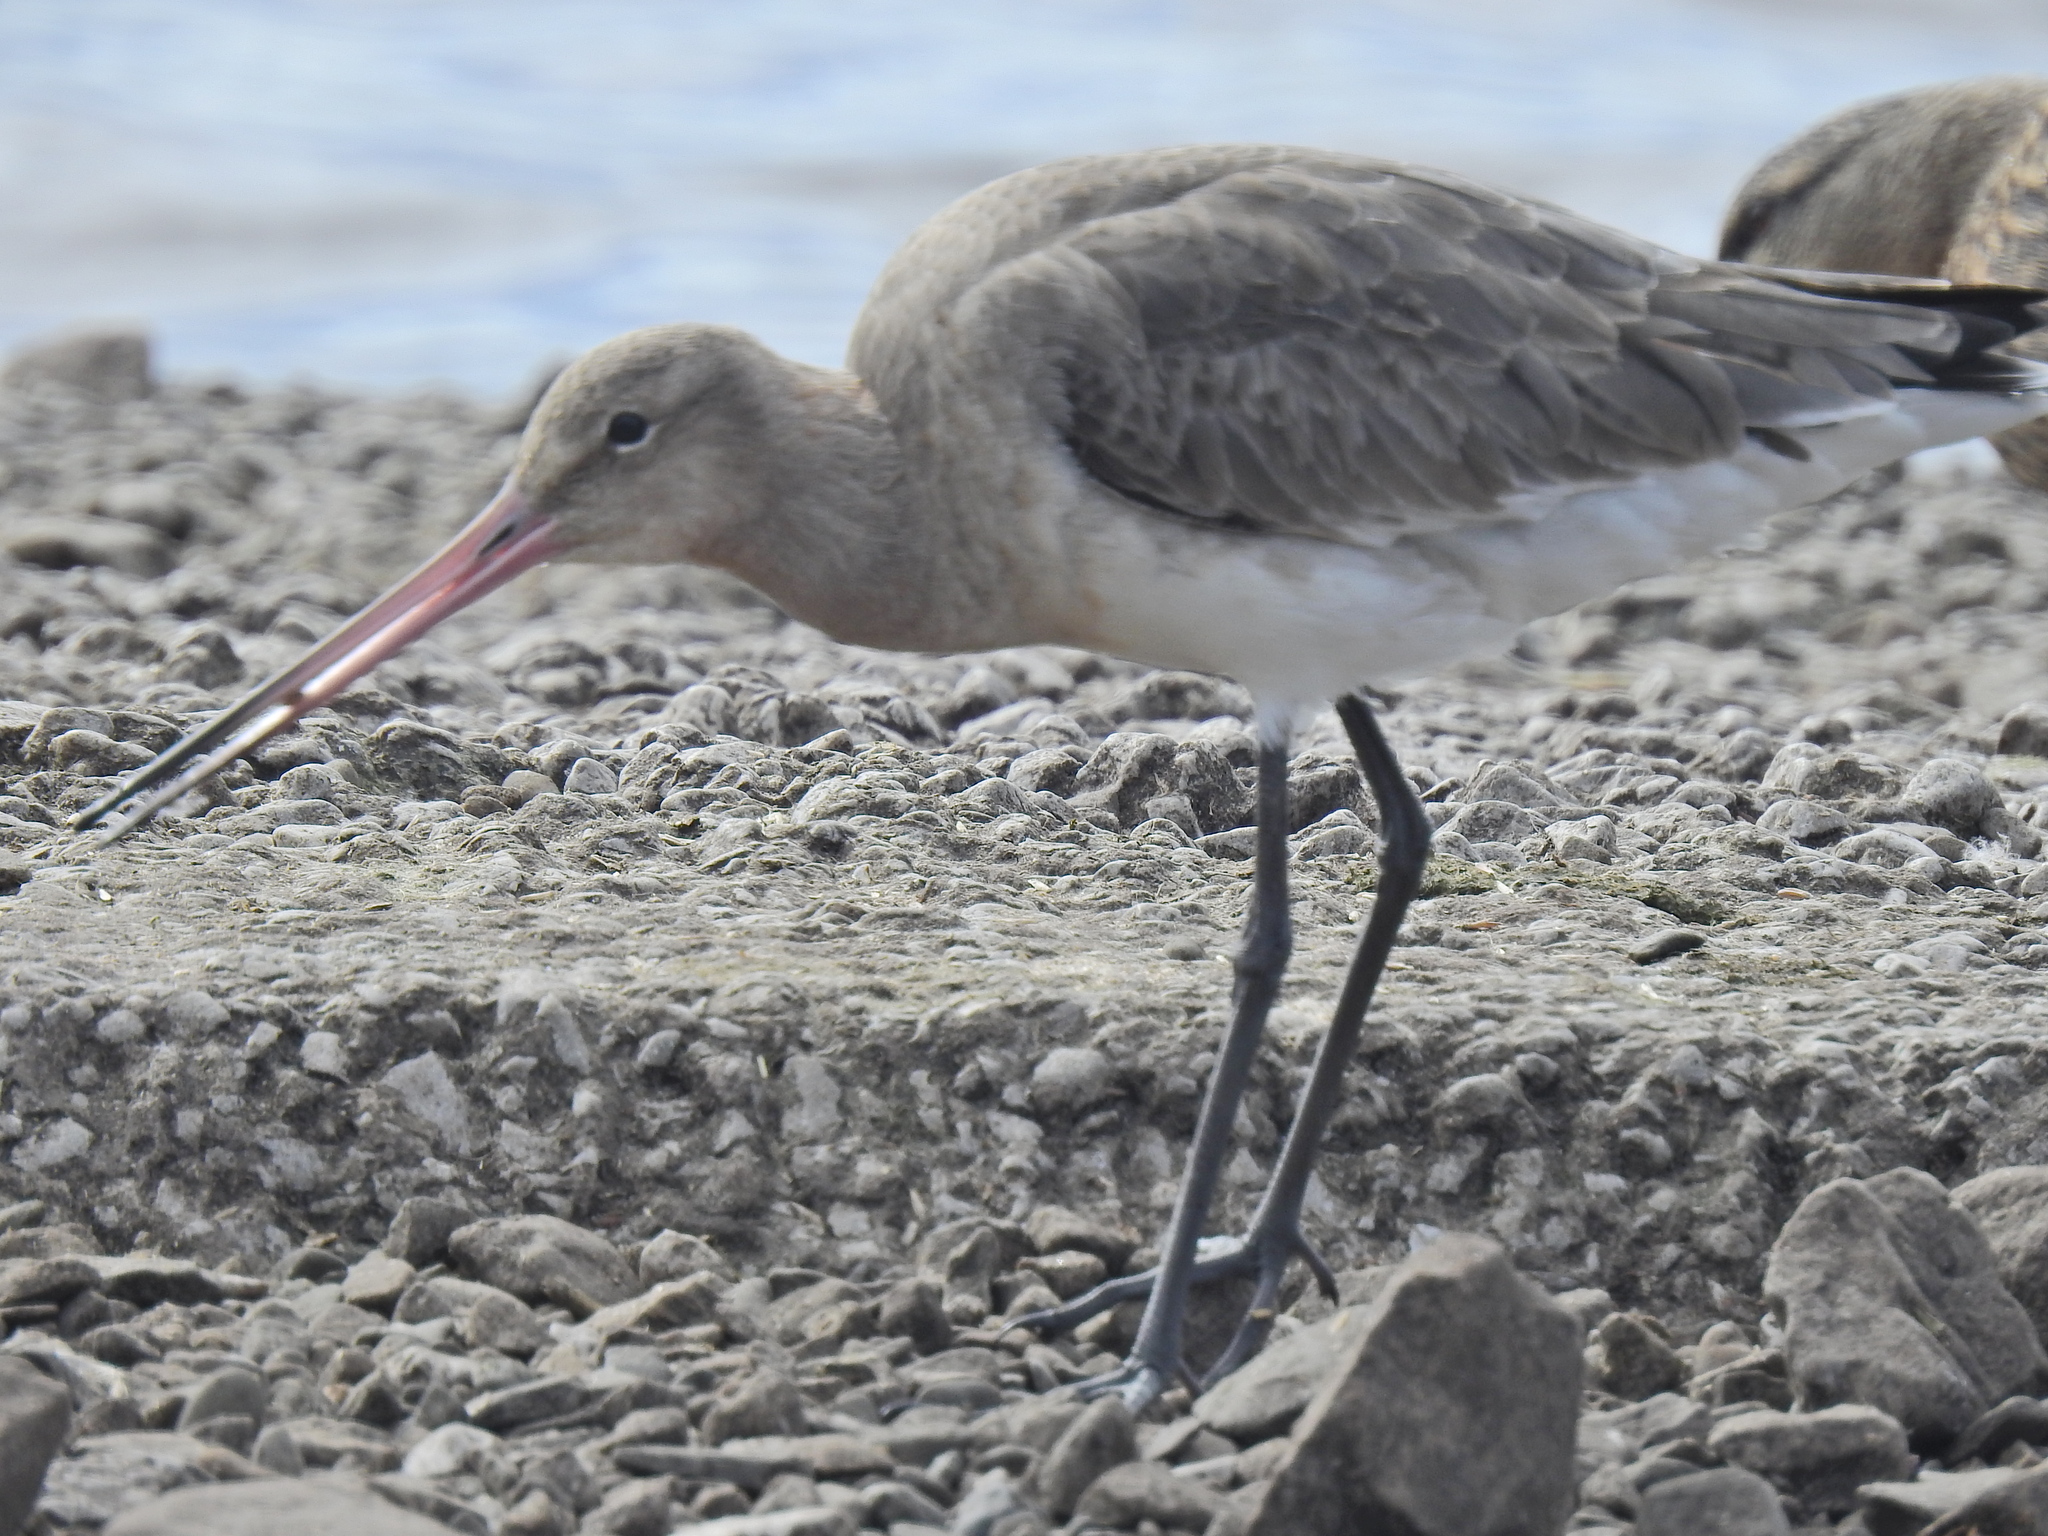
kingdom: Animalia
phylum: Chordata
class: Aves
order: Charadriiformes
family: Scolopacidae
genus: Limosa
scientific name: Limosa limosa
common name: Black-tailed godwit
